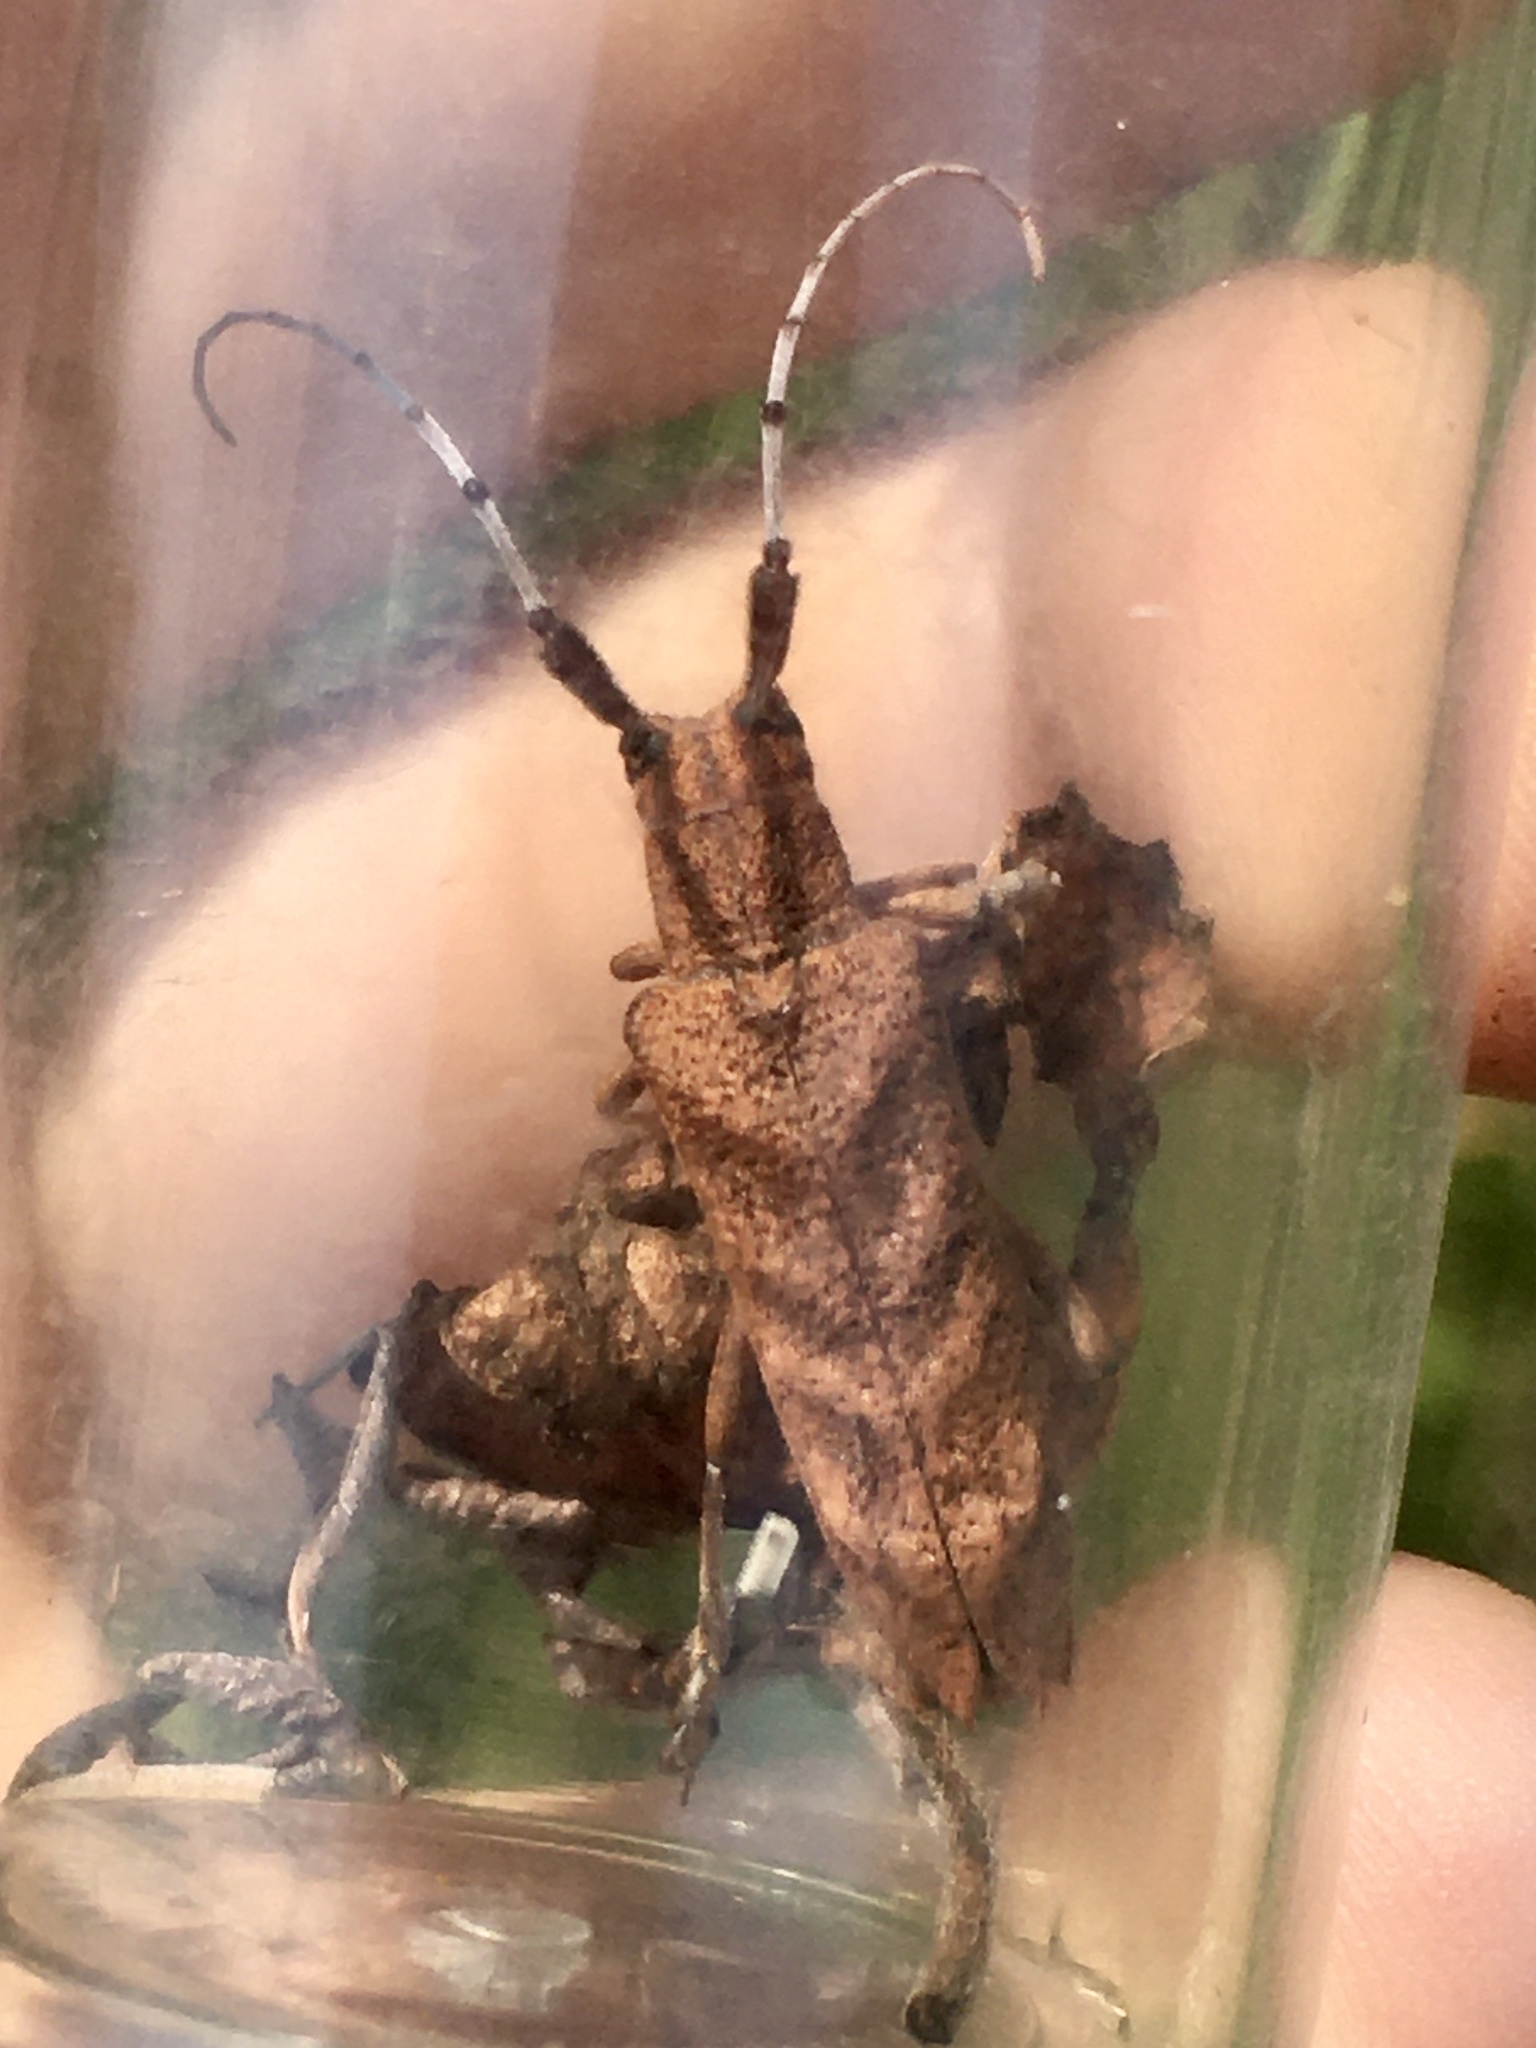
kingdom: Animalia
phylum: Arthropoda
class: Insecta
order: Coleoptera
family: Cerambycidae
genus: Saperda
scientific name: Saperda obliqua
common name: Alder borer
